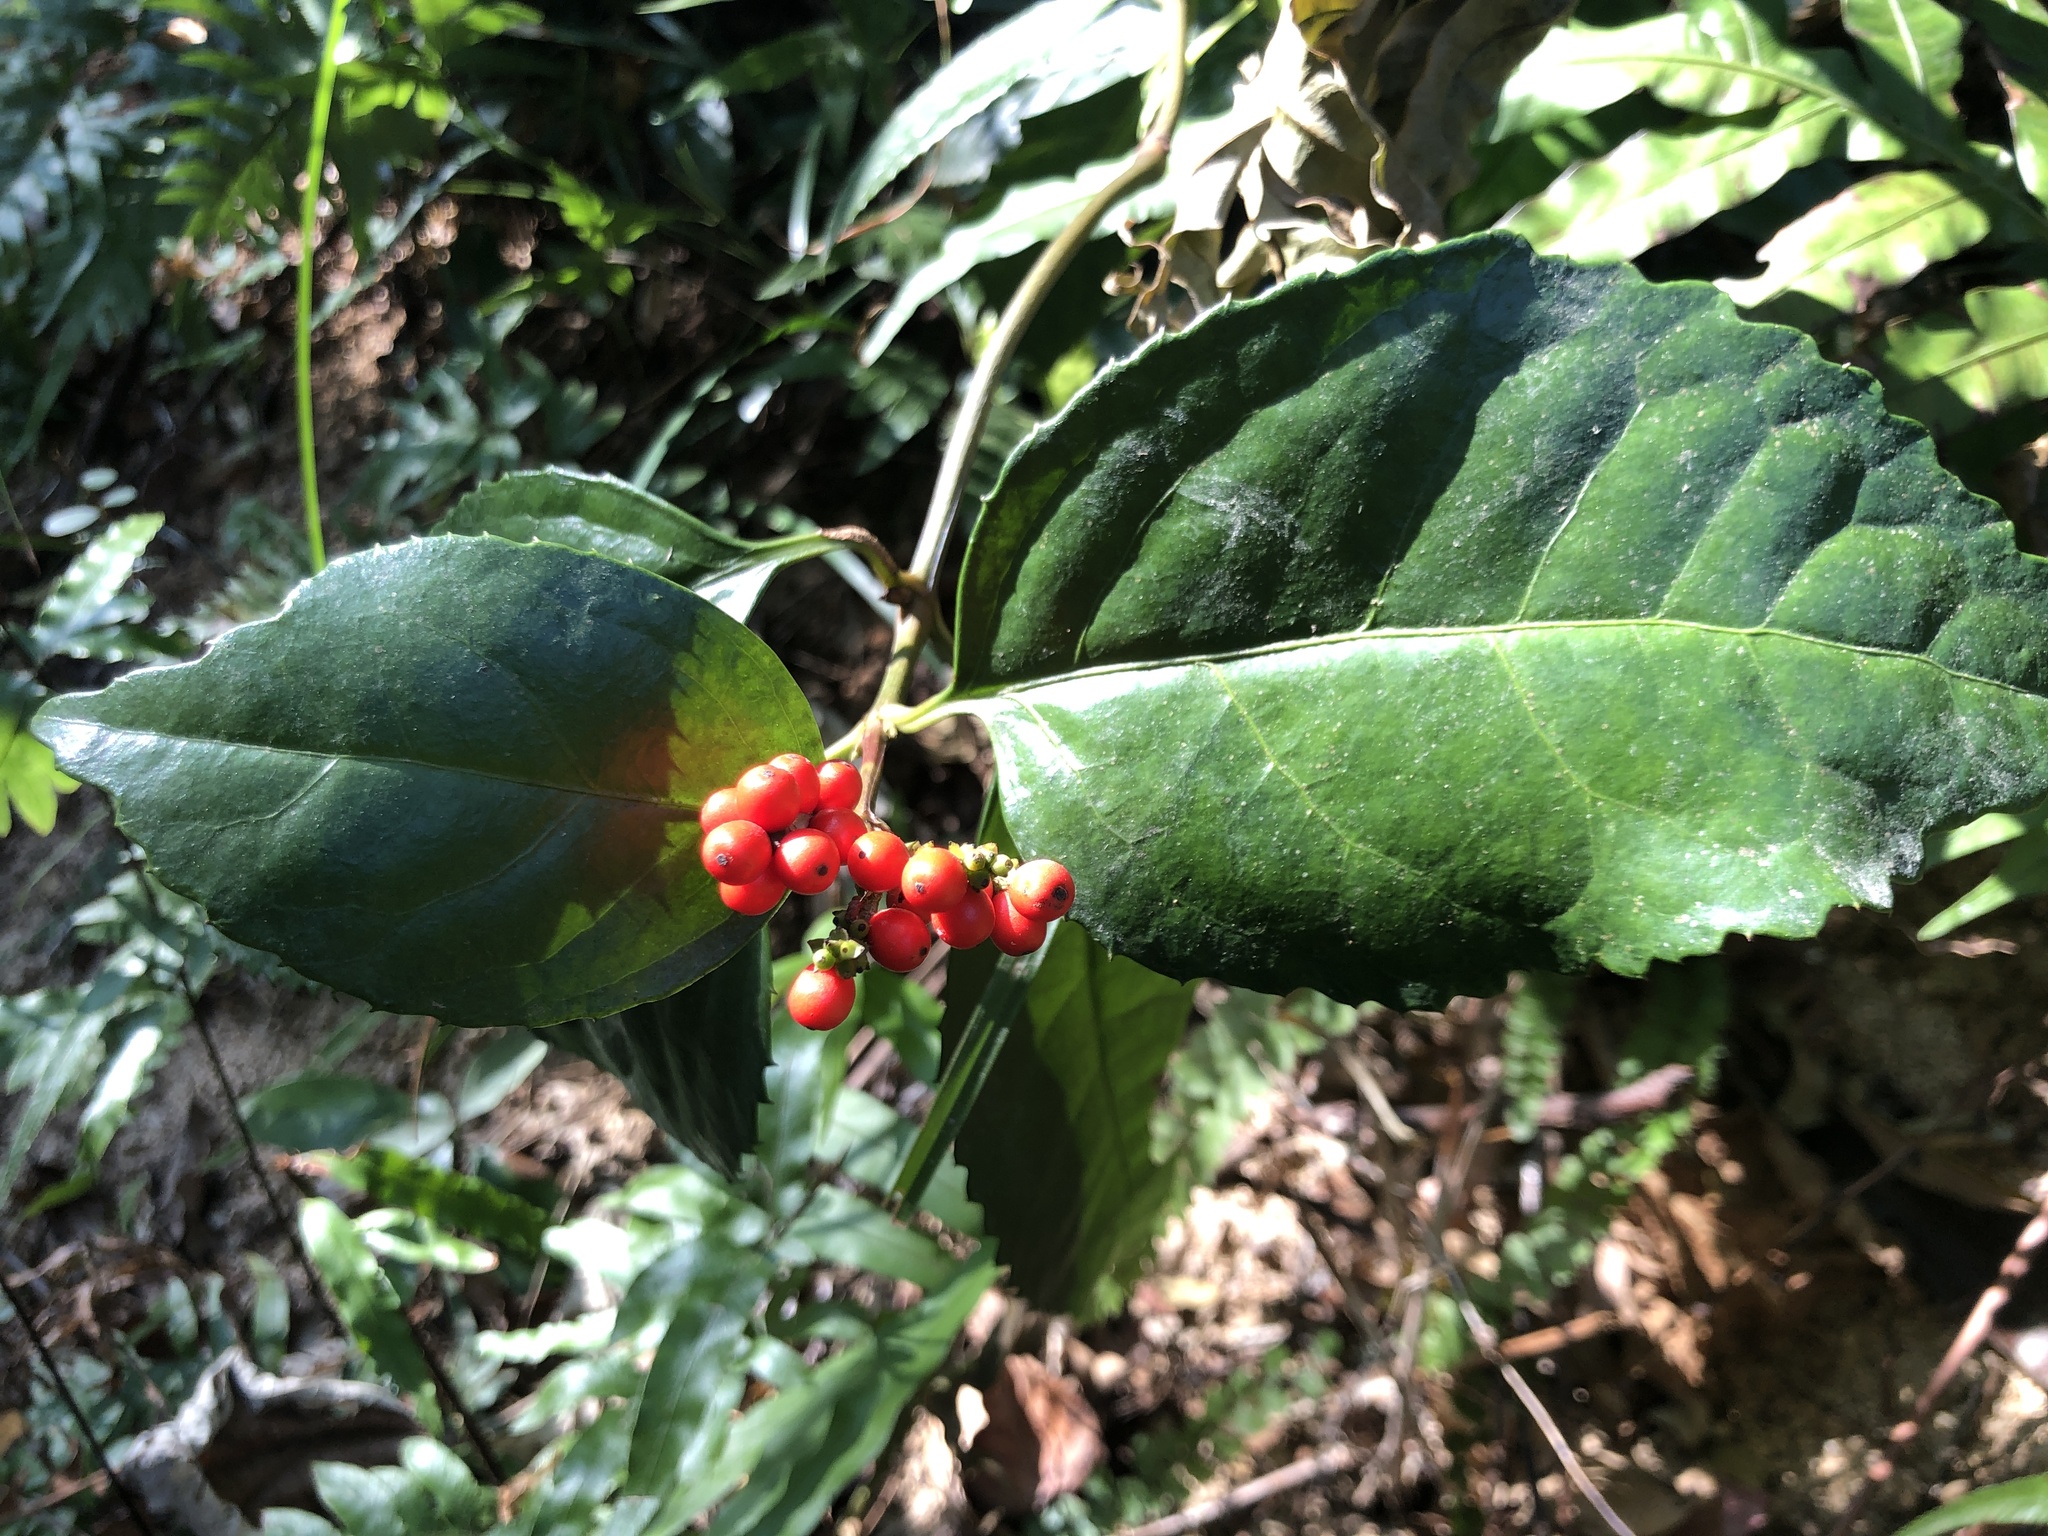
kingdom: Plantae
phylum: Tracheophyta
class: Magnoliopsida
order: Chloranthales
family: Chloranthaceae
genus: Sarcandra
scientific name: Sarcandra glabra
